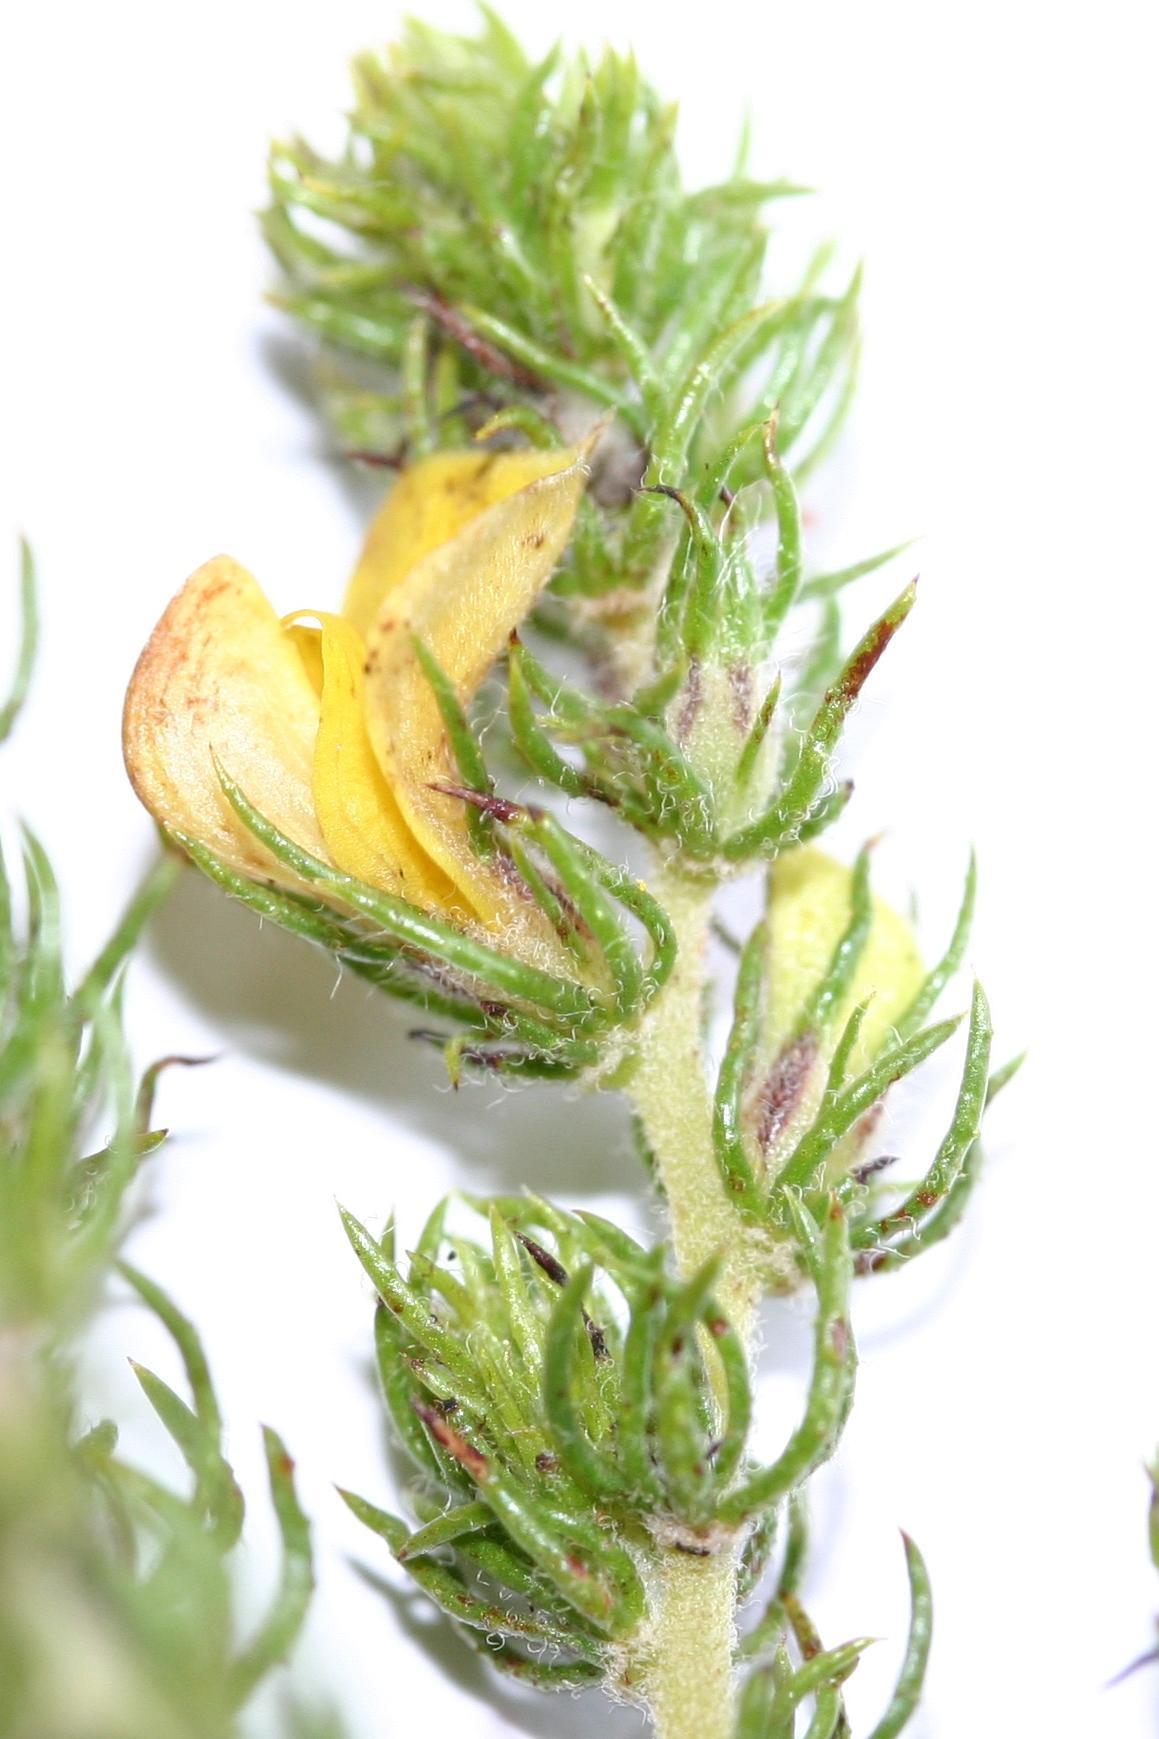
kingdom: Plantae
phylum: Tracheophyta
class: Magnoliopsida
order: Fabales
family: Fabaceae
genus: Aspalathus
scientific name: Aspalathus asparagoides
